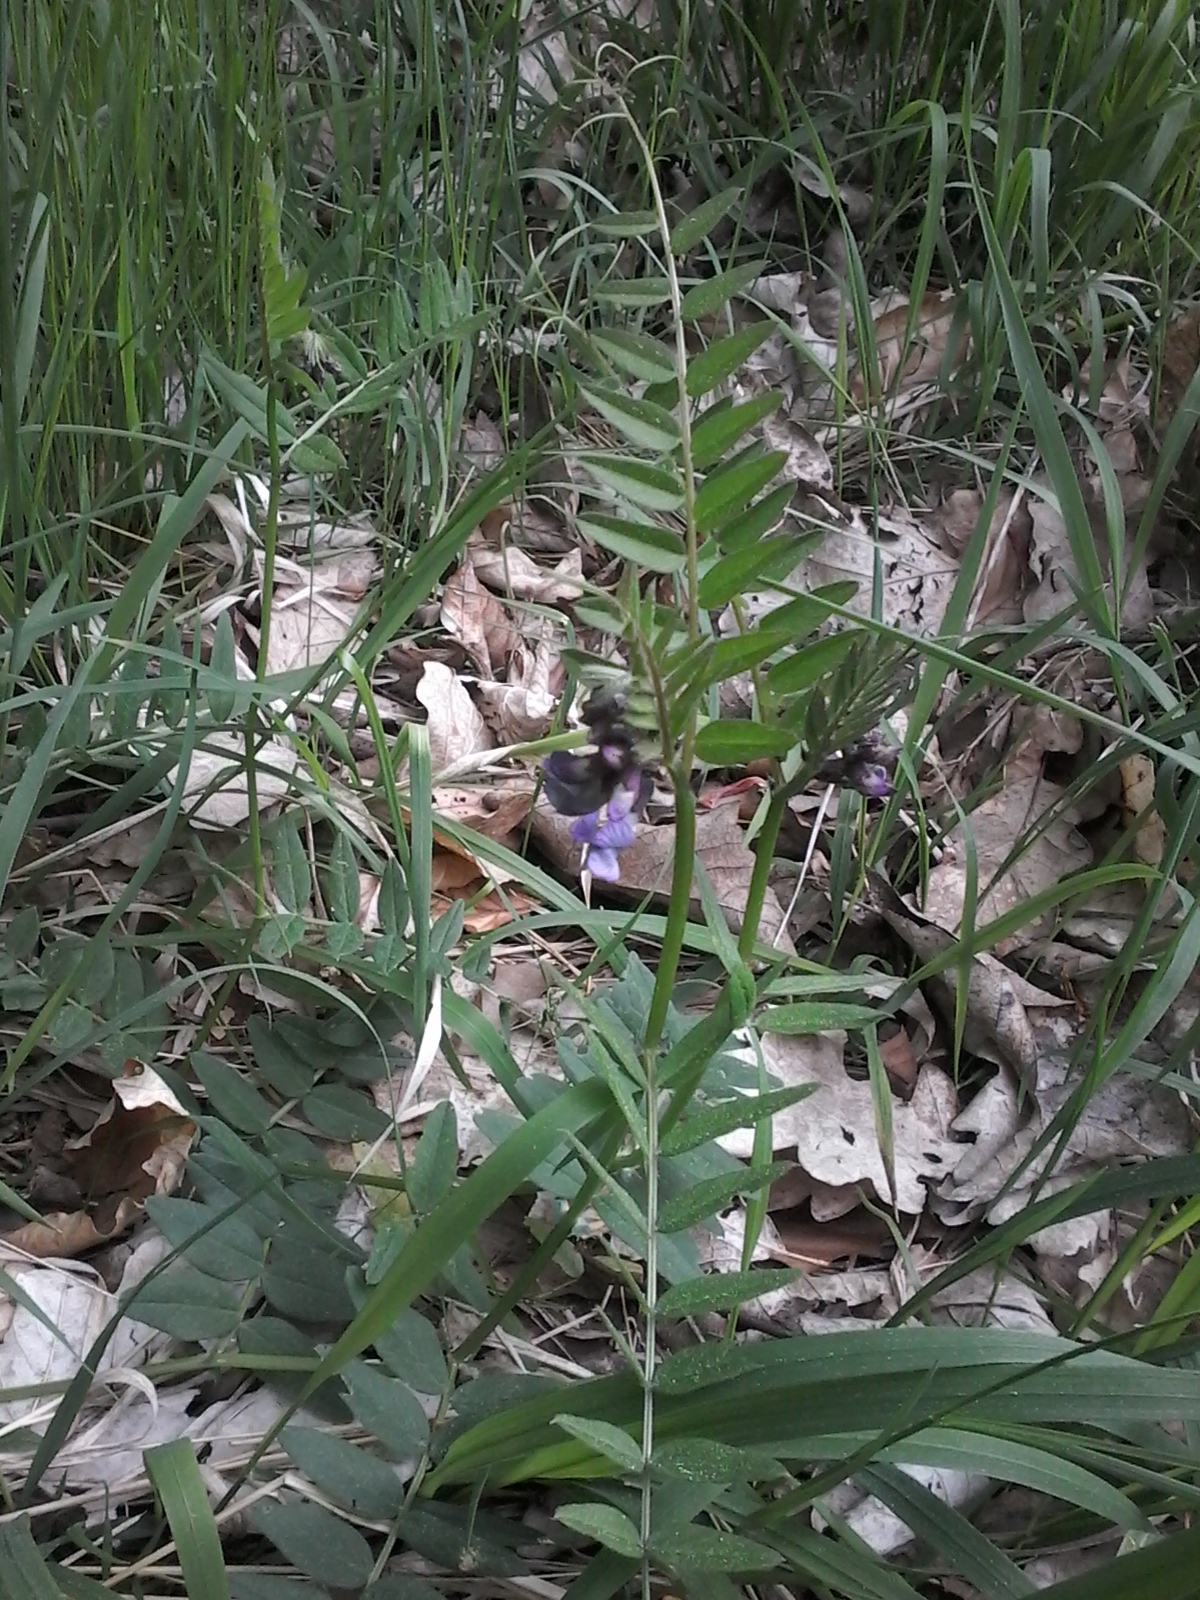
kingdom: Plantae
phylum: Tracheophyta
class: Magnoliopsida
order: Fabales
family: Fabaceae
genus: Vicia
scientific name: Vicia sepium
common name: Bush vetch
